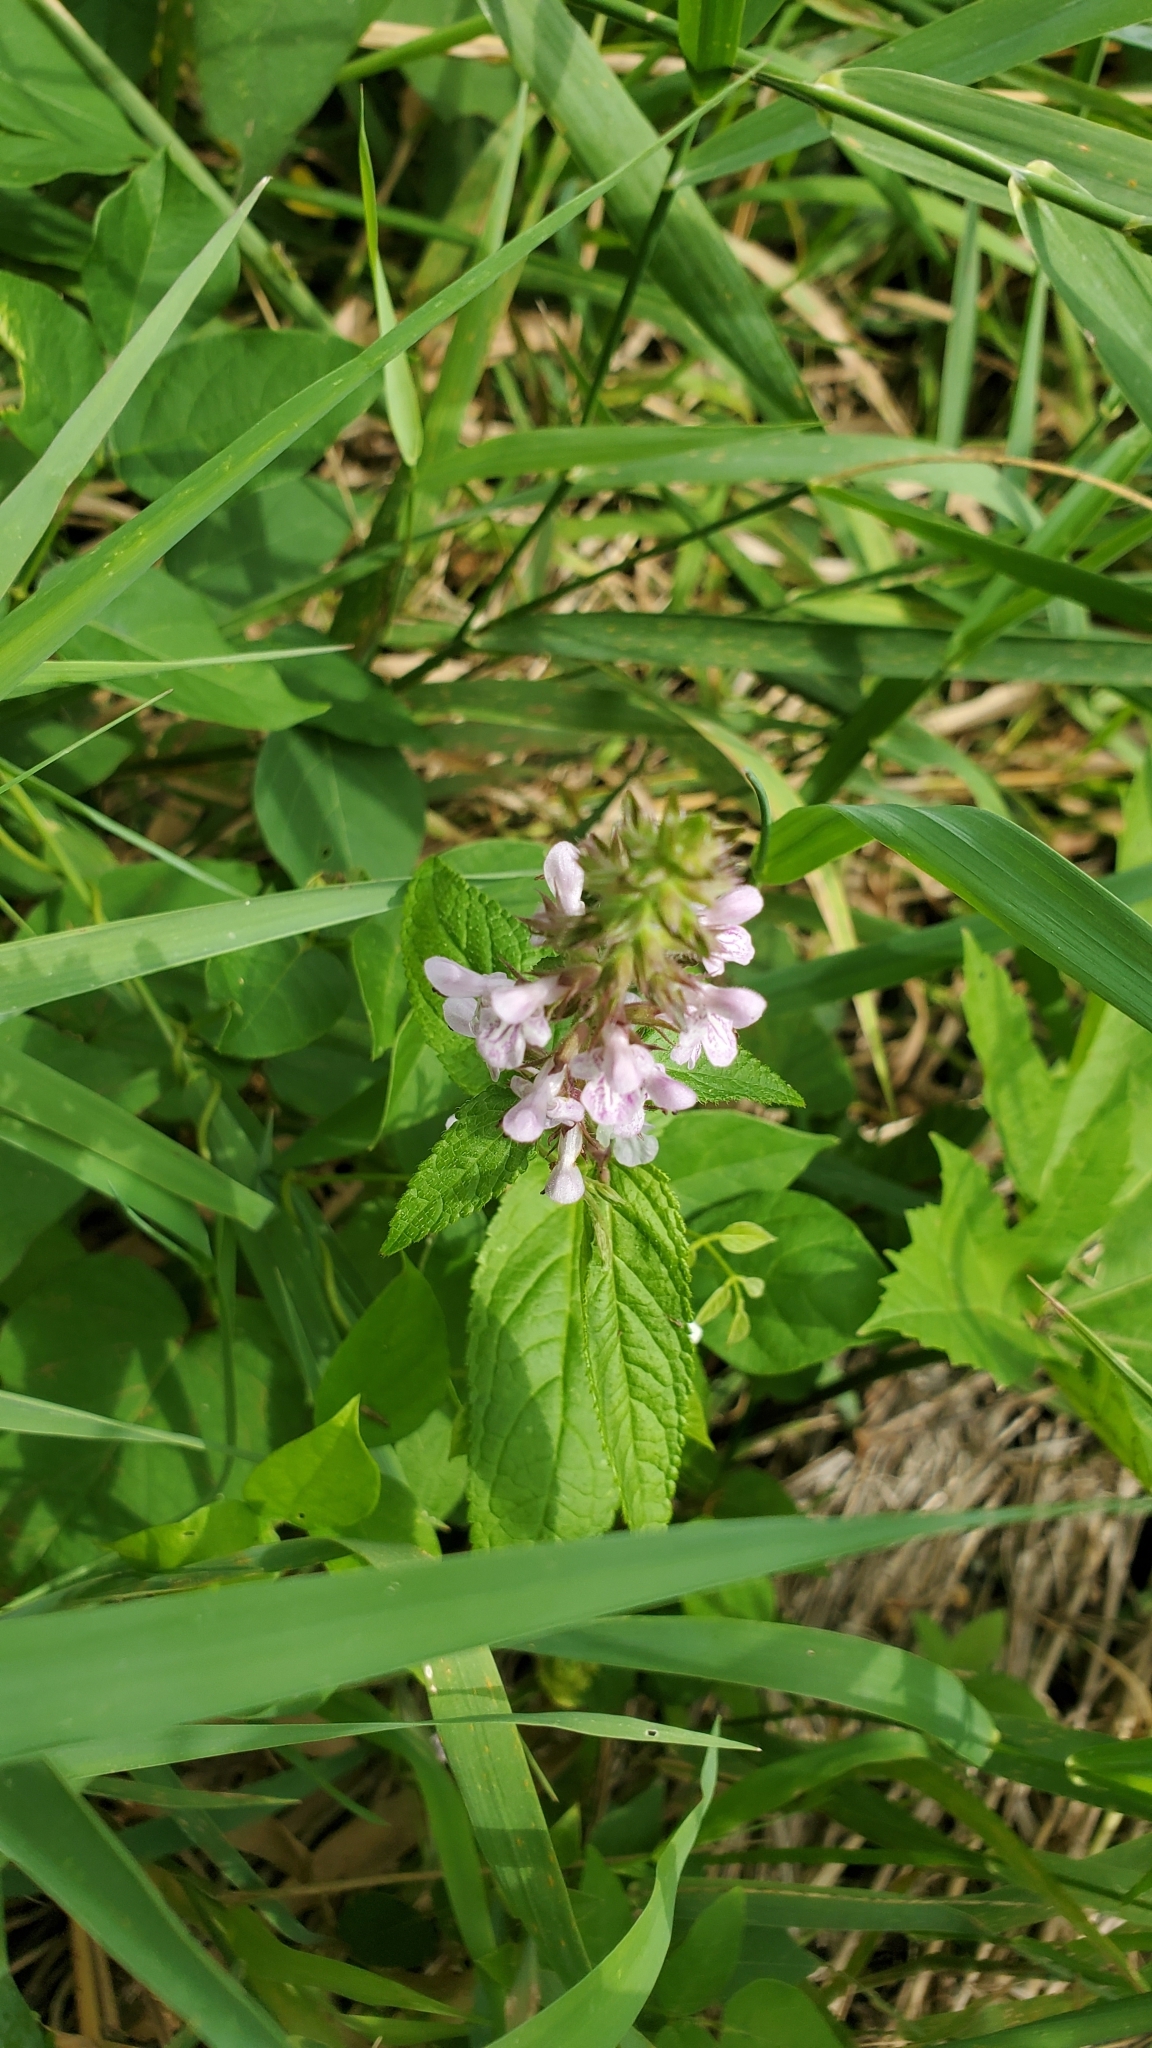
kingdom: Plantae
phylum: Tracheophyta
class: Magnoliopsida
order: Lamiales
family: Lamiaceae
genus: Stachys
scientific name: Stachys hispida
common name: Hispid hedge-nettle
